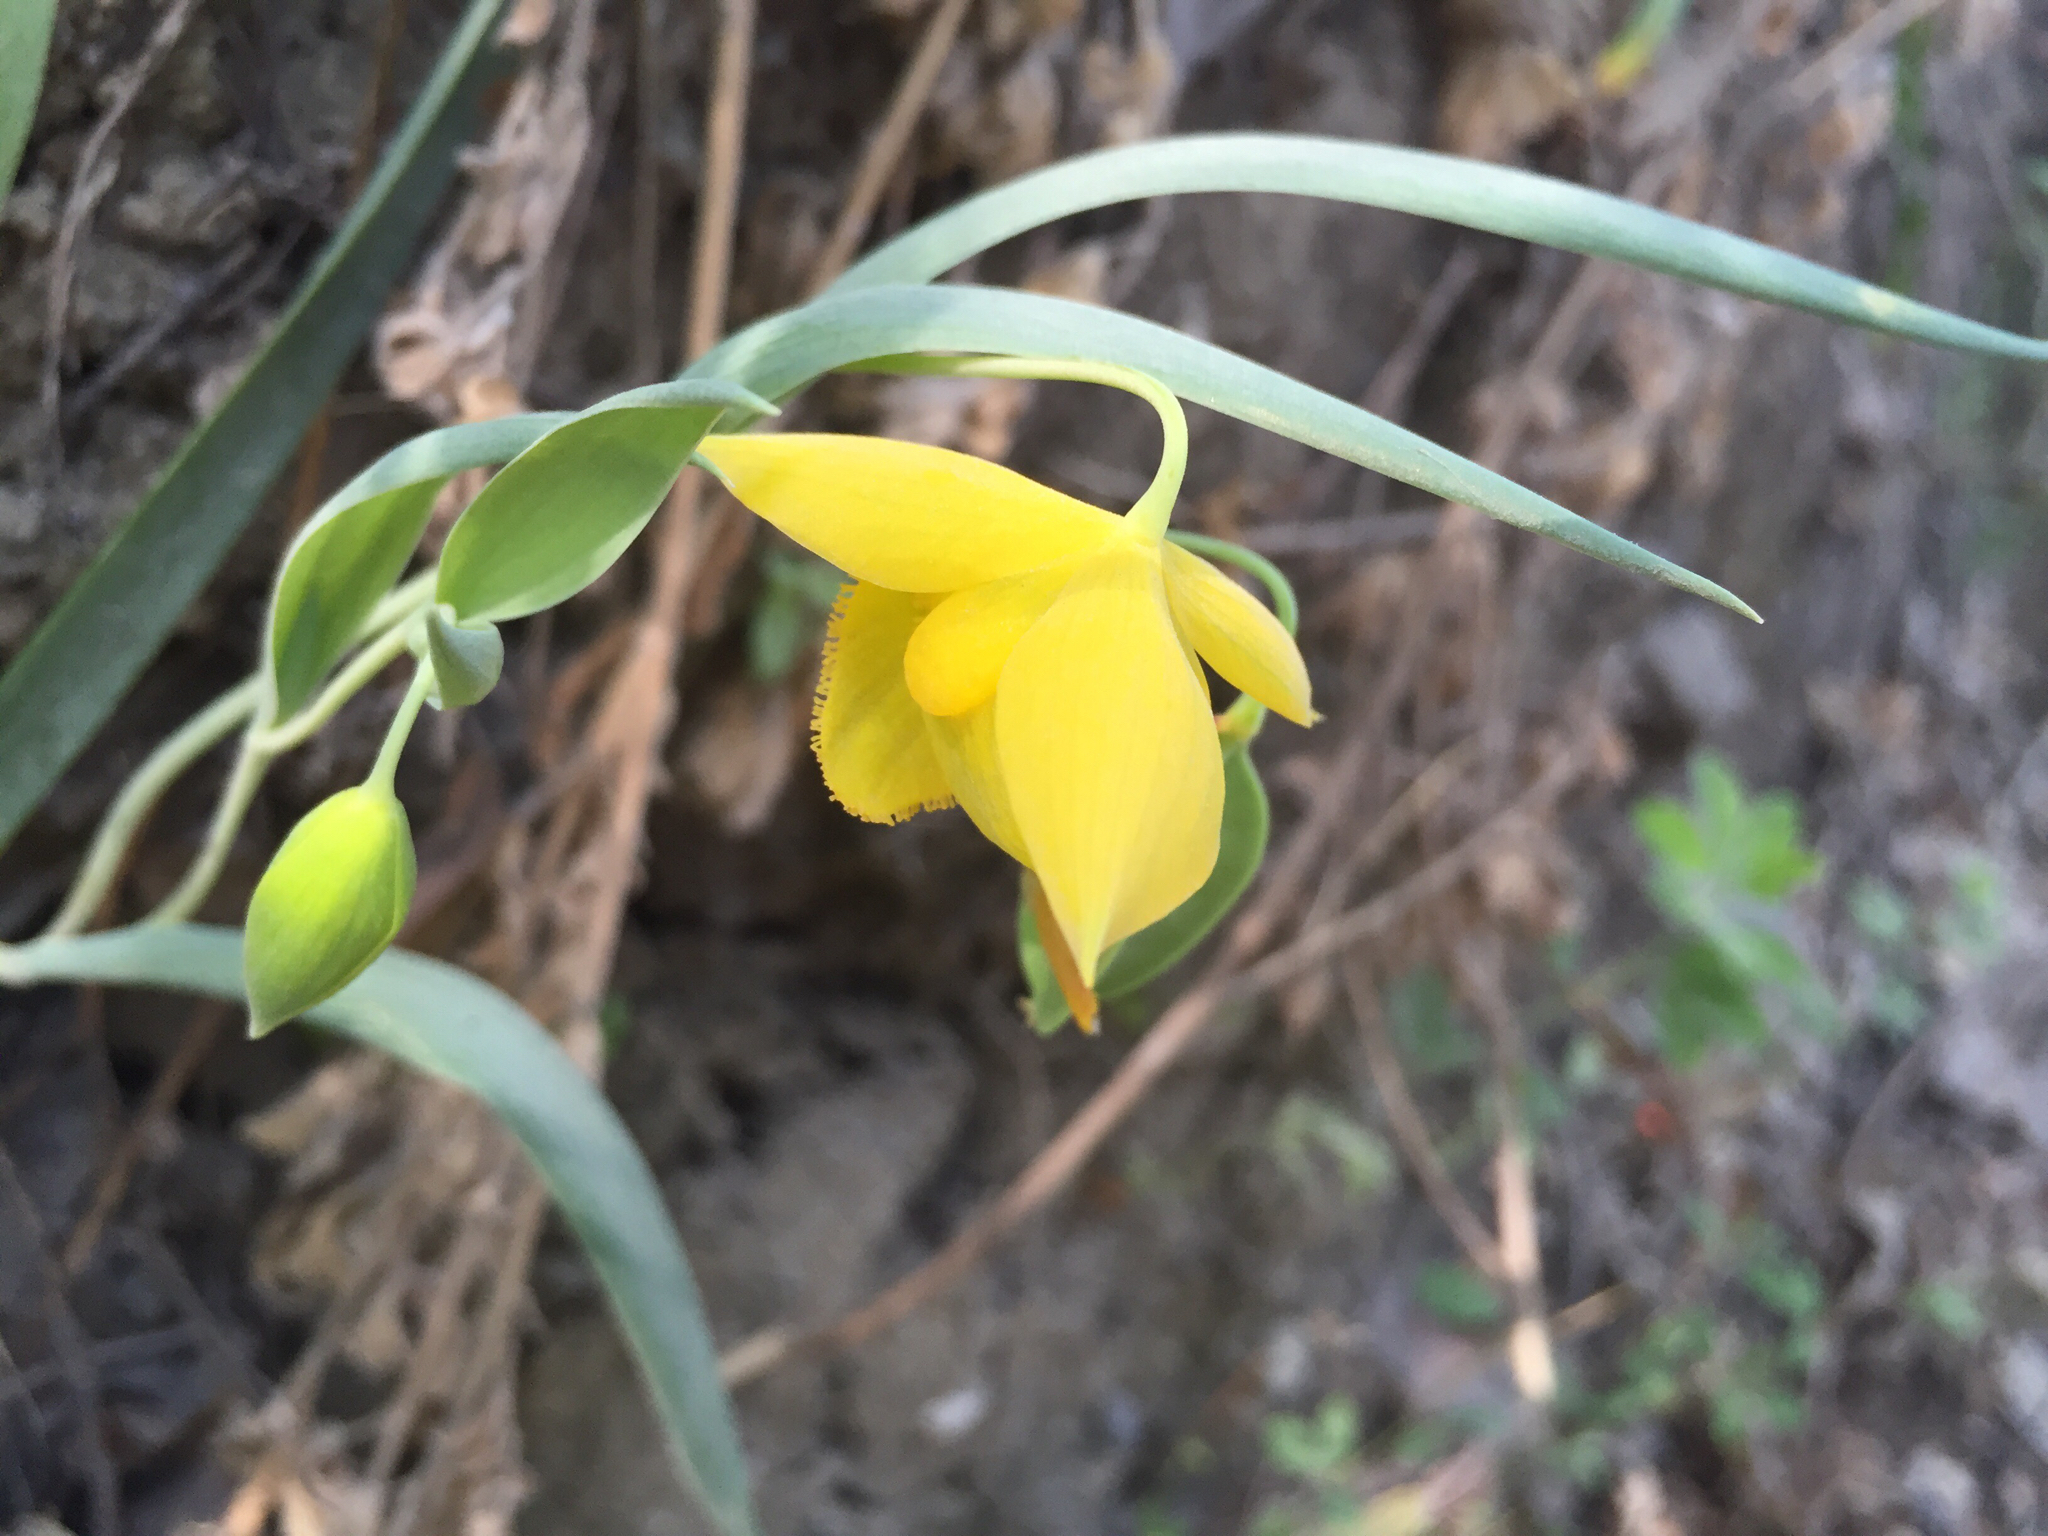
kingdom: Plantae
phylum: Tracheophyta
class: Liliopsida
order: Liliales
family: Liliaceae
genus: Calochortus
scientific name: Calochortus amabilis
